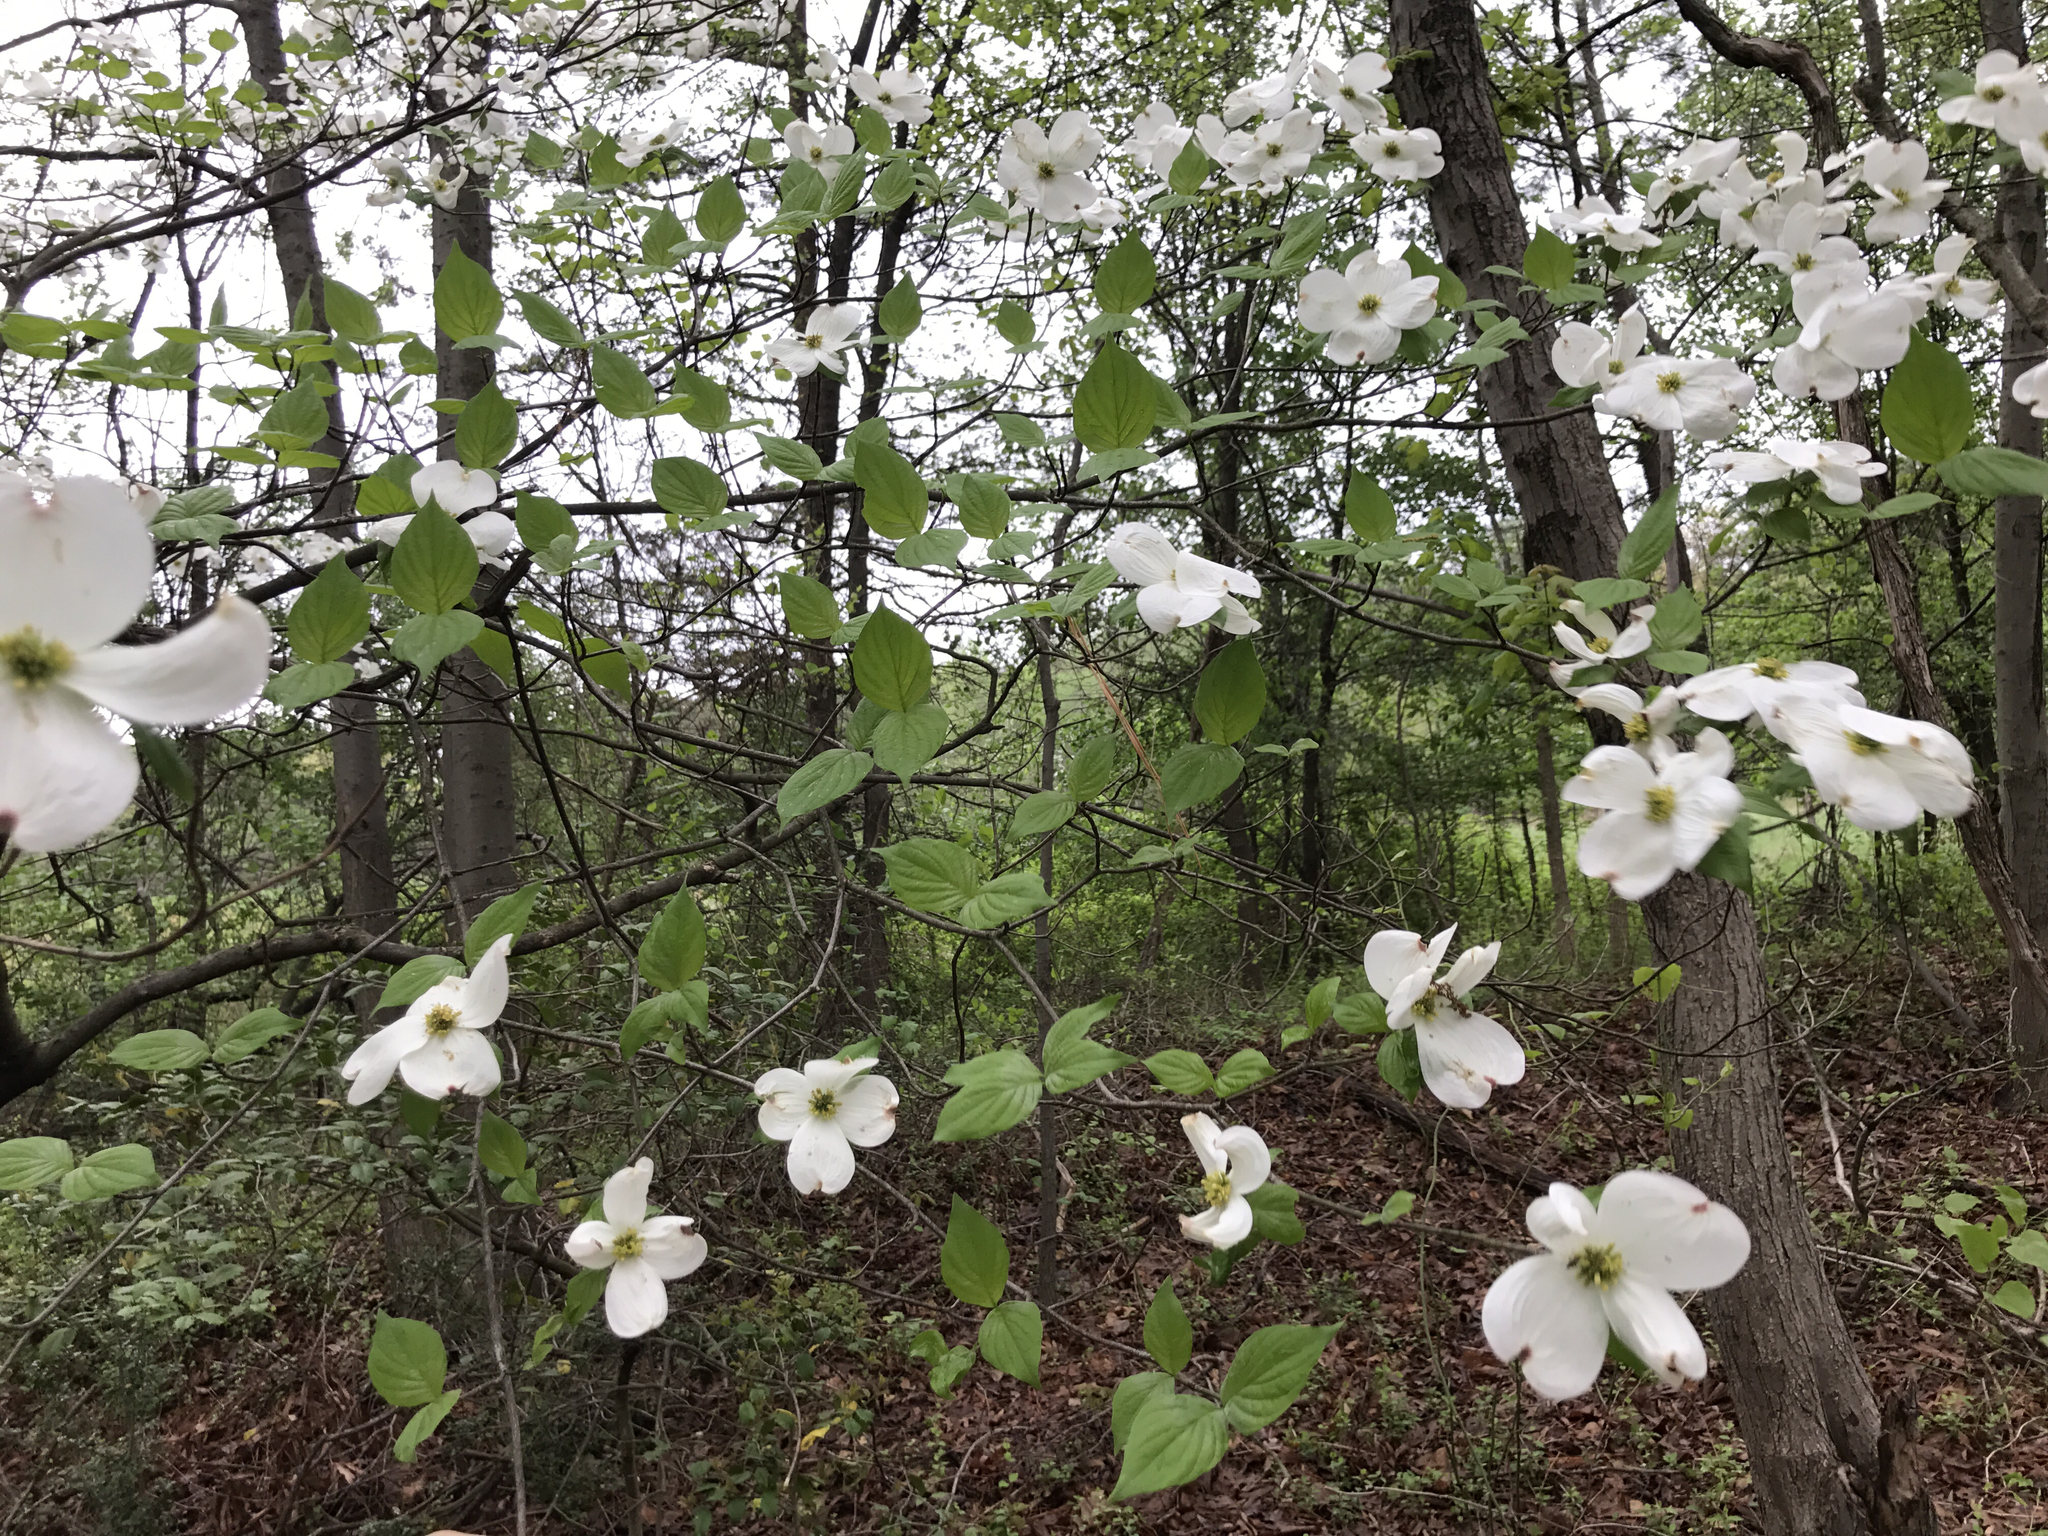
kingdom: Plantae
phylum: Tracheophyta
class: Magnoliopsida
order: Cornales
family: Cornaceae
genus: Cornus
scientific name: Cornus florida
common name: Flowering dogwood
